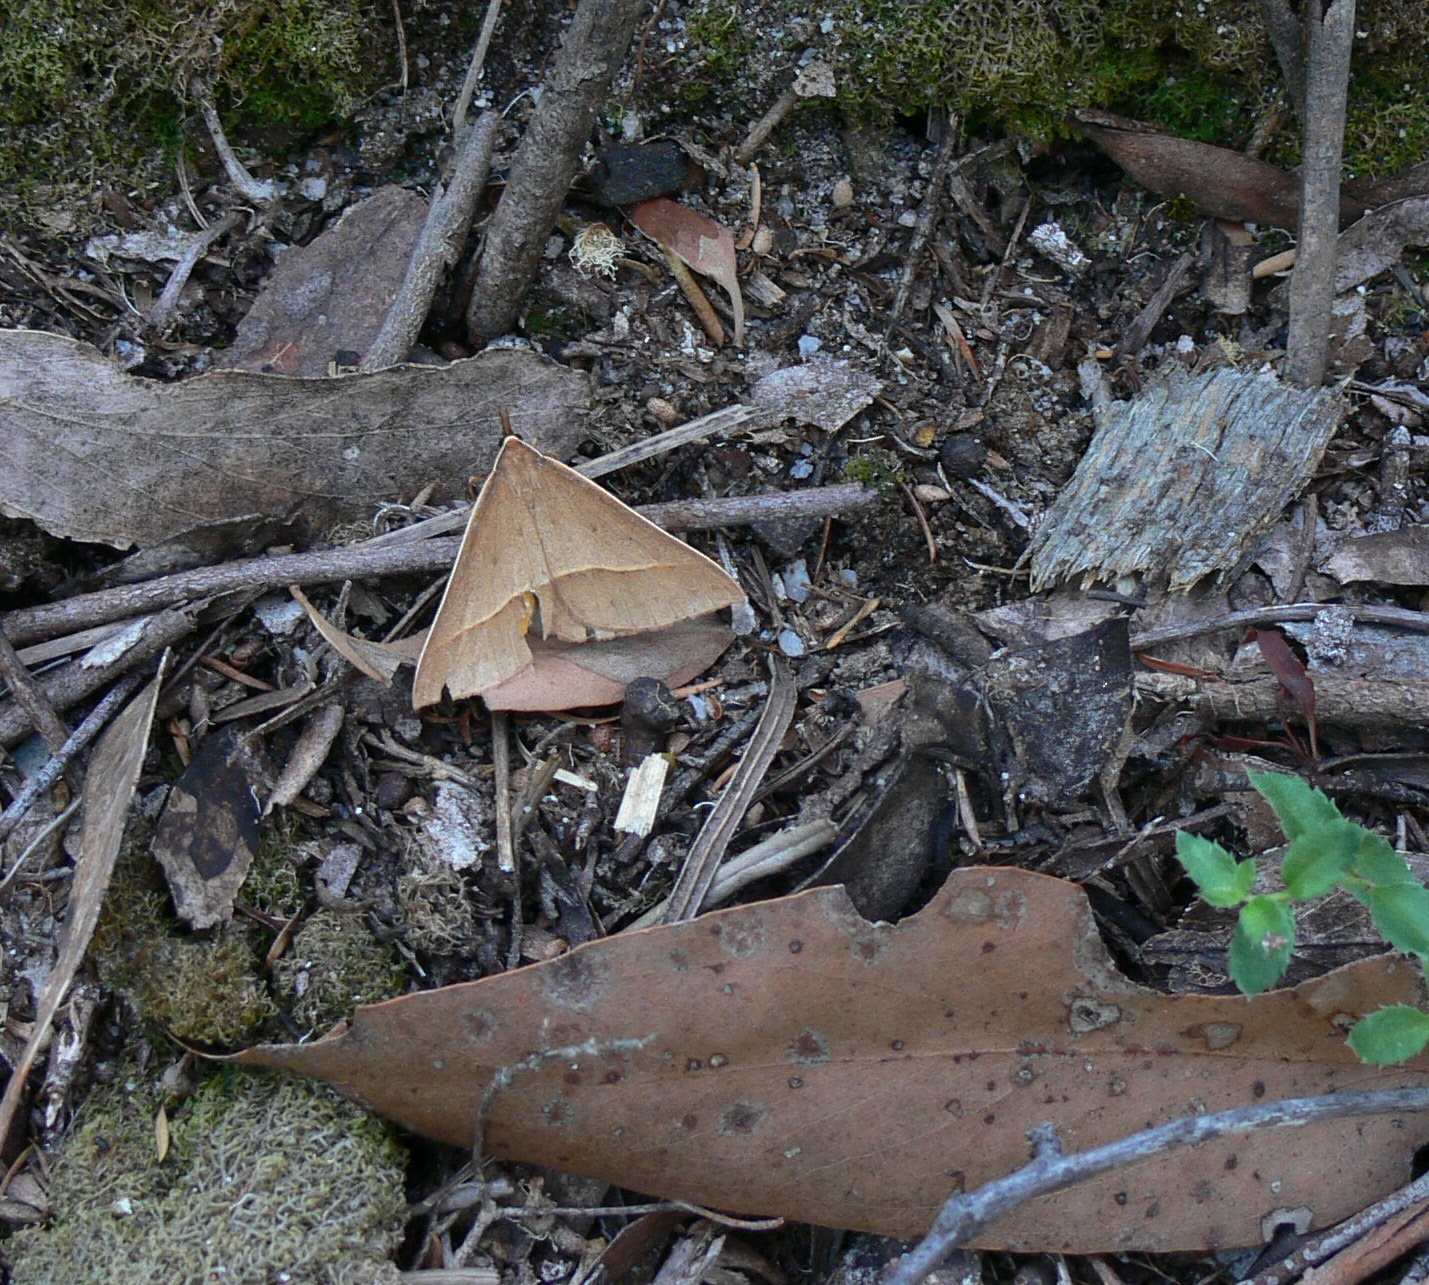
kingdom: Animalia
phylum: Arthropoda
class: Insecta
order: Lepidoptera
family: Geometridae
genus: Epidesmia
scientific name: Epidesmia chilonaria
